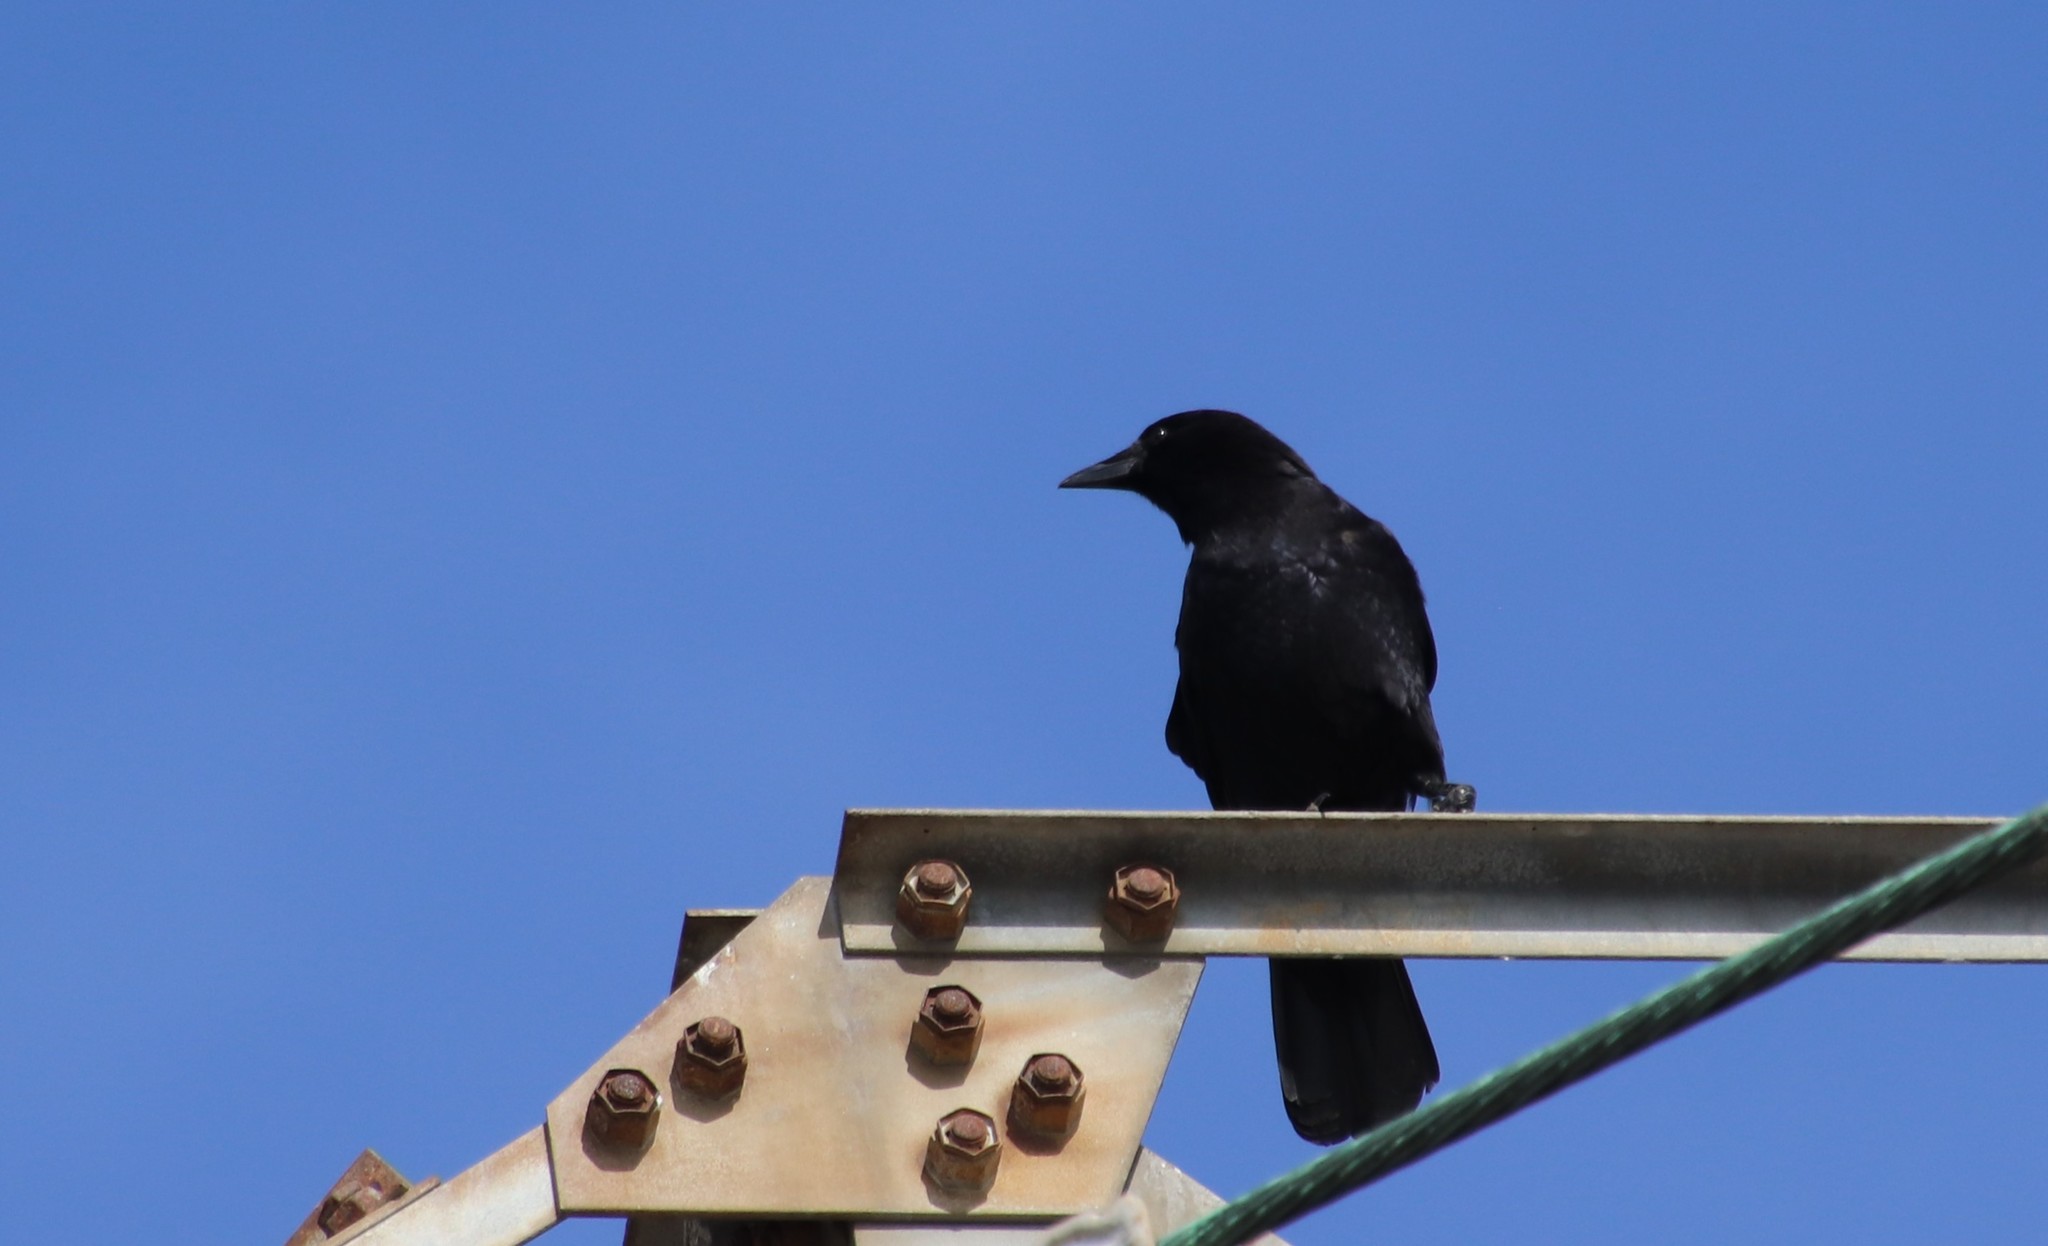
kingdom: Animalia
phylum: Chordata
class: Aves
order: Passeriformes
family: Corvidae
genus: Corvus
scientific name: Corvus brachyrhynchos
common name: American crow
